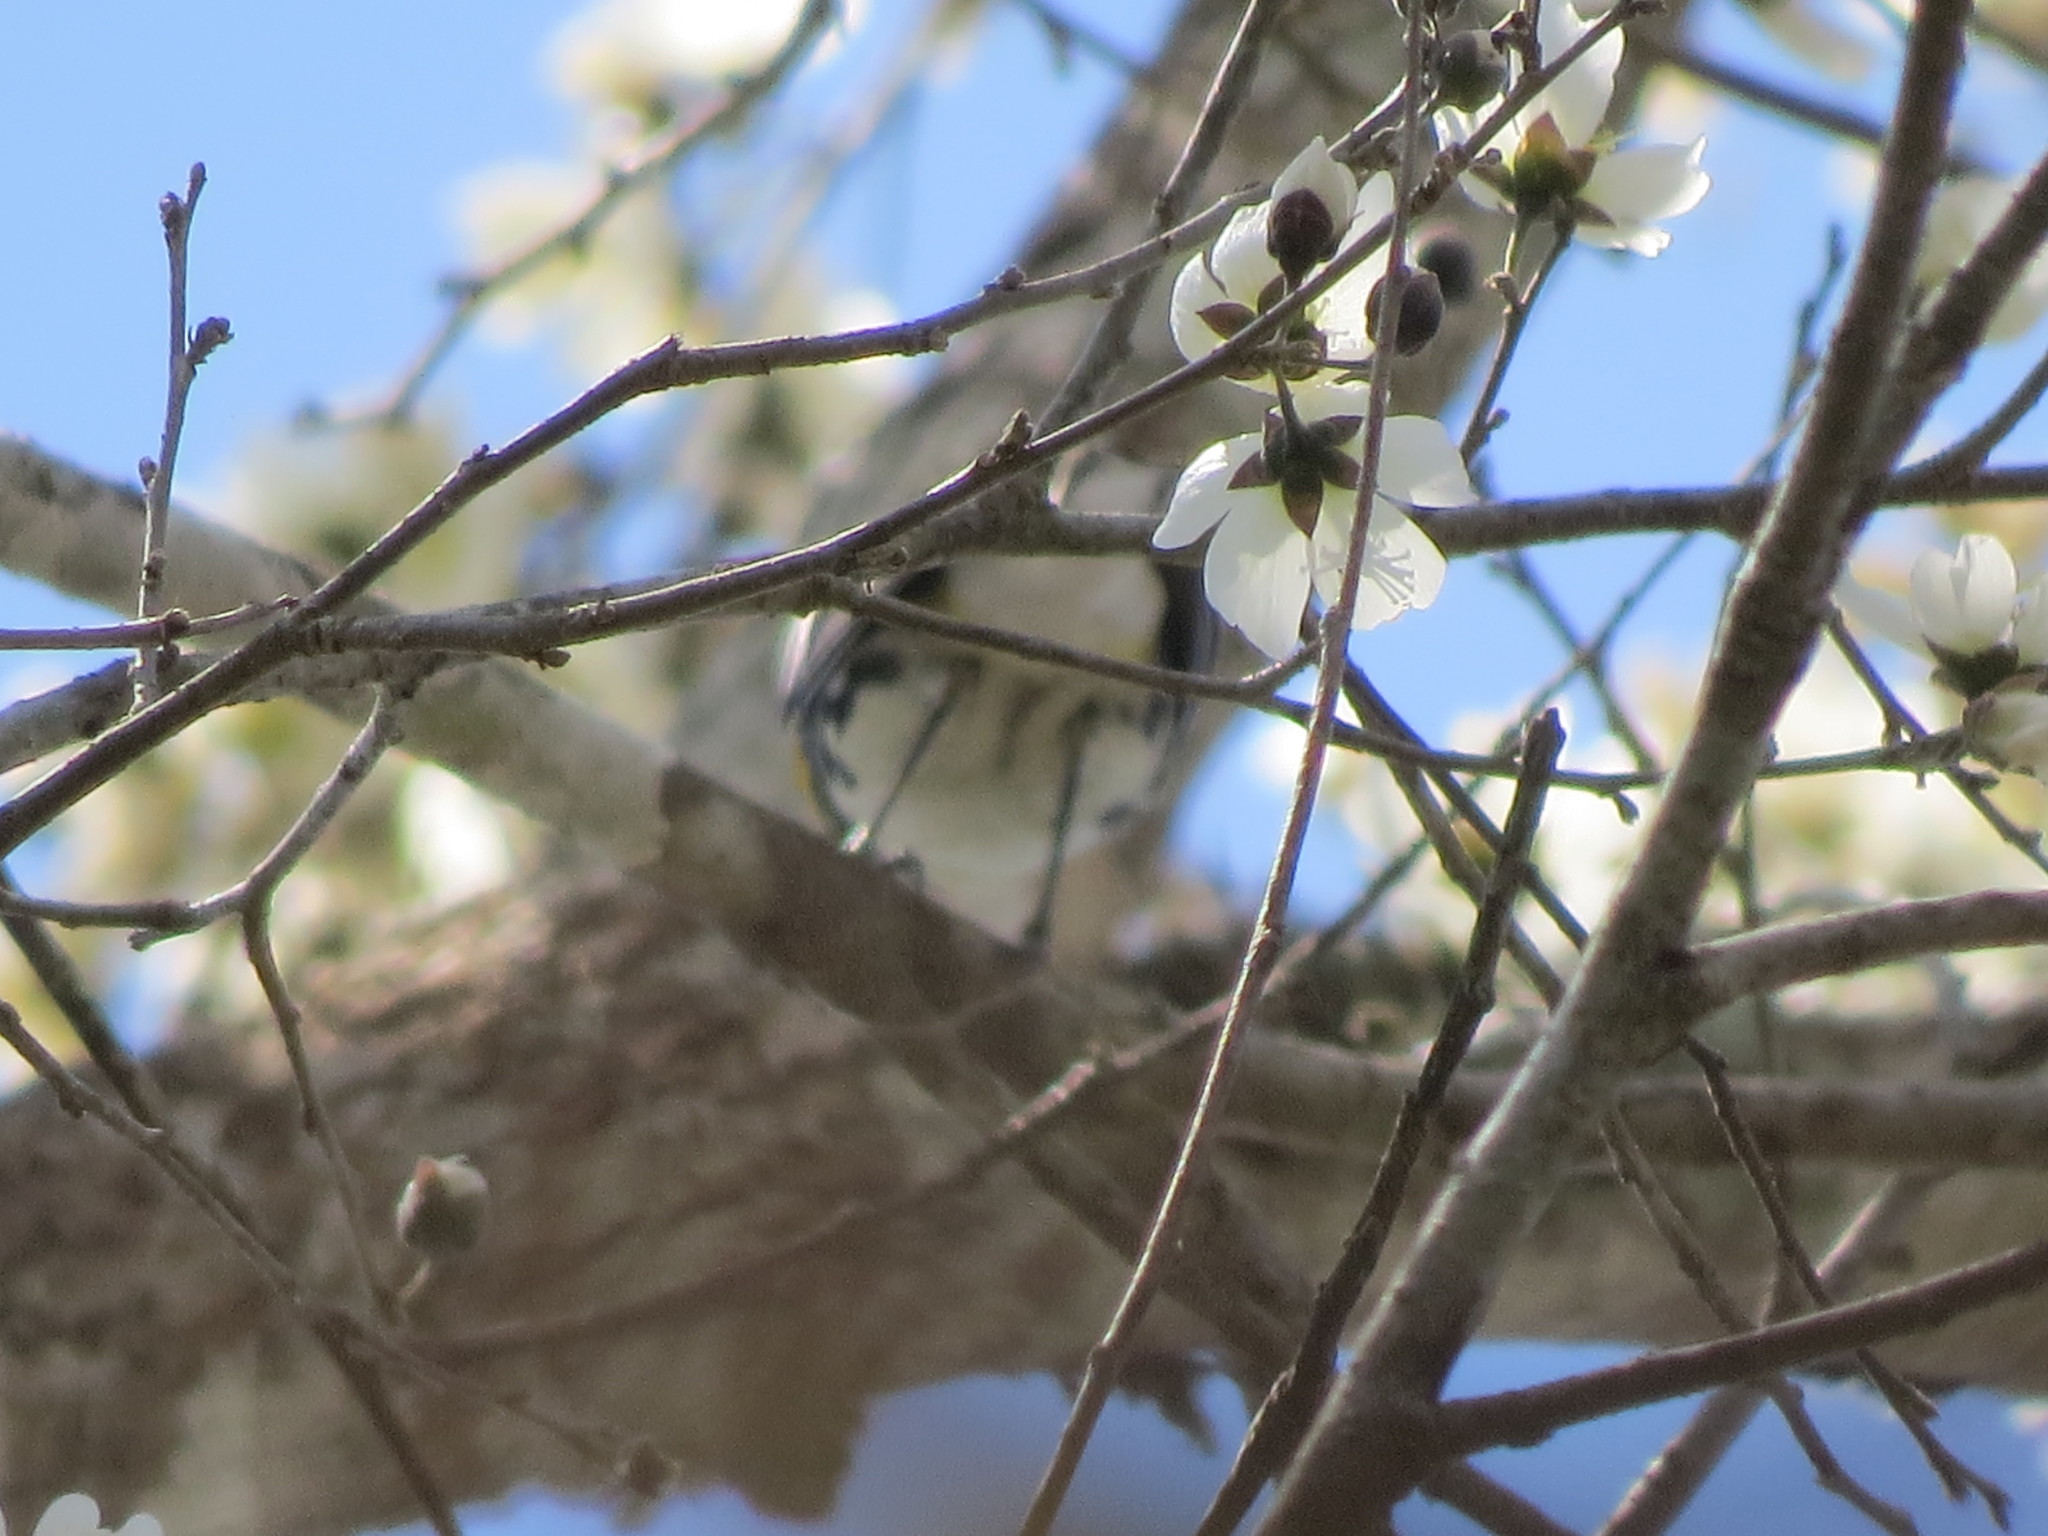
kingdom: Plantae
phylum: Tracheophyta
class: Magnoliopsida
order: Malvales
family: Malvaceae
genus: Robinsonella
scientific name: Robinsonella glabrifolia
